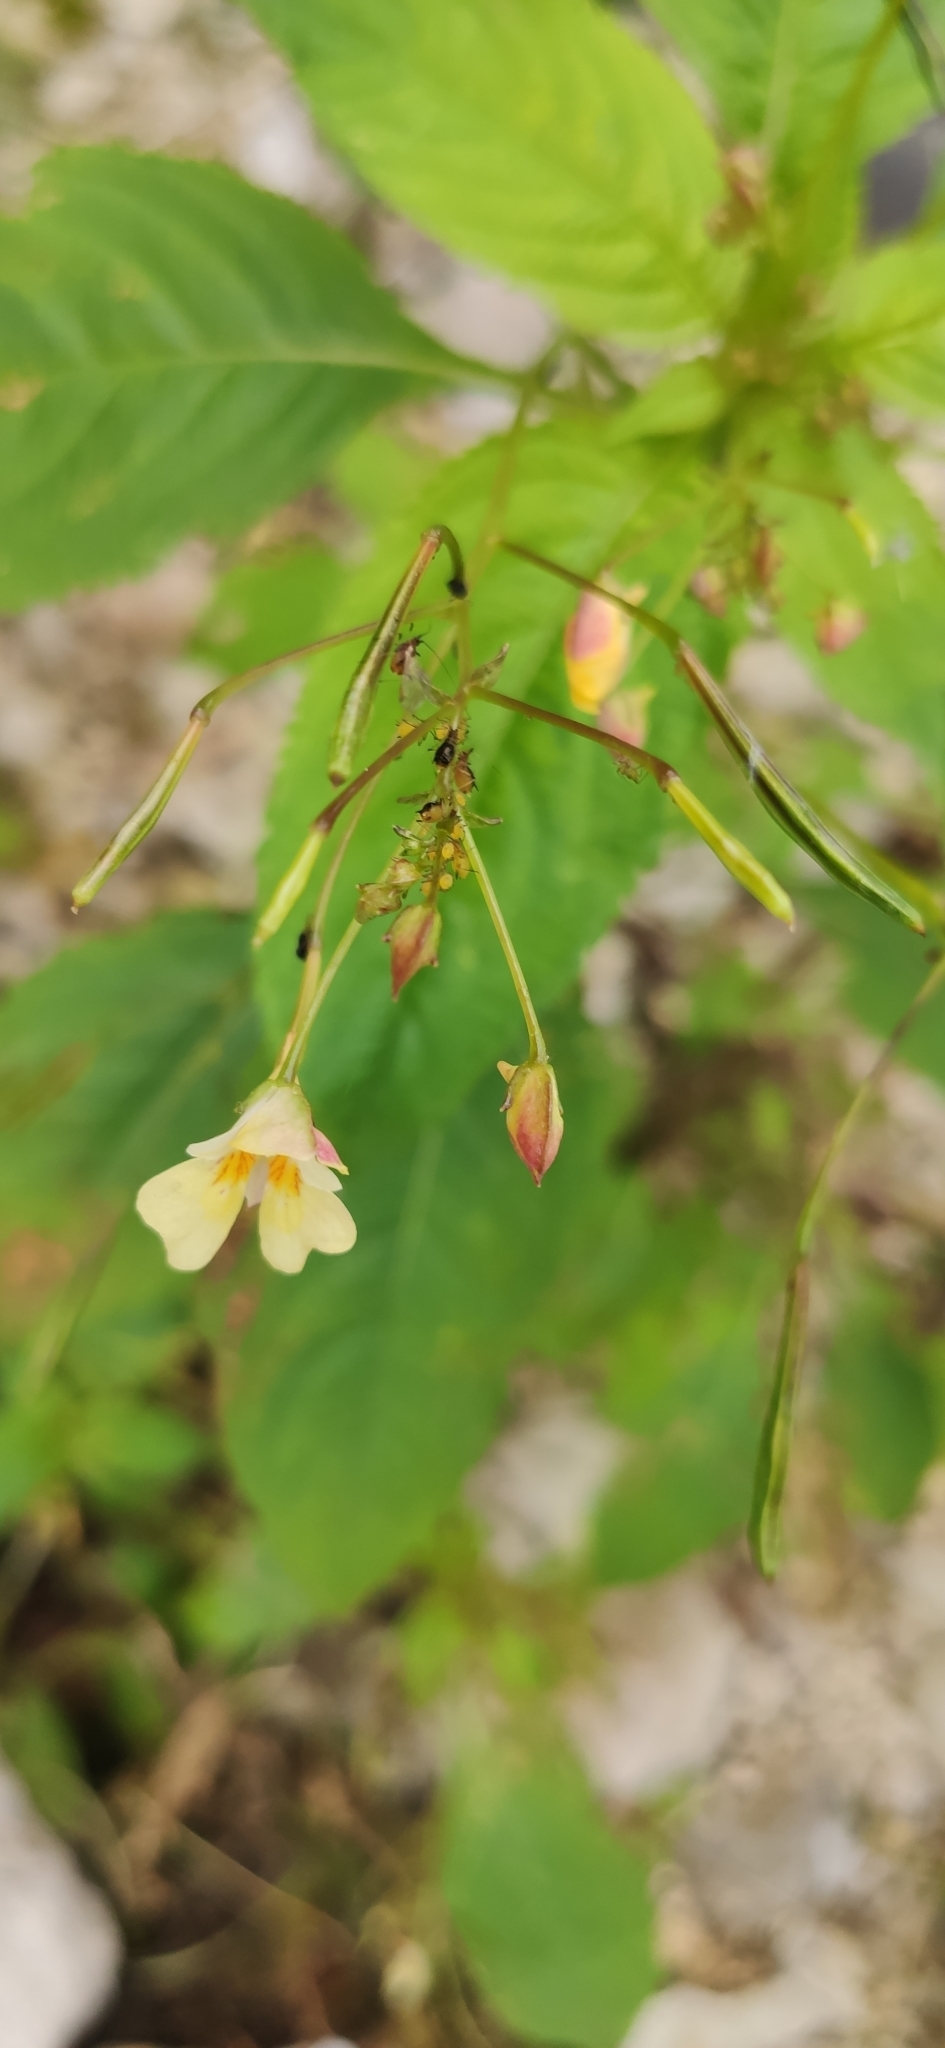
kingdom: Plantae
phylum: Tracheophyta
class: Magnoliopsida
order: Ericales
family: Balsaminaceae
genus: Impatiens
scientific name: Impatiens parviflora
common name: Small balsam
